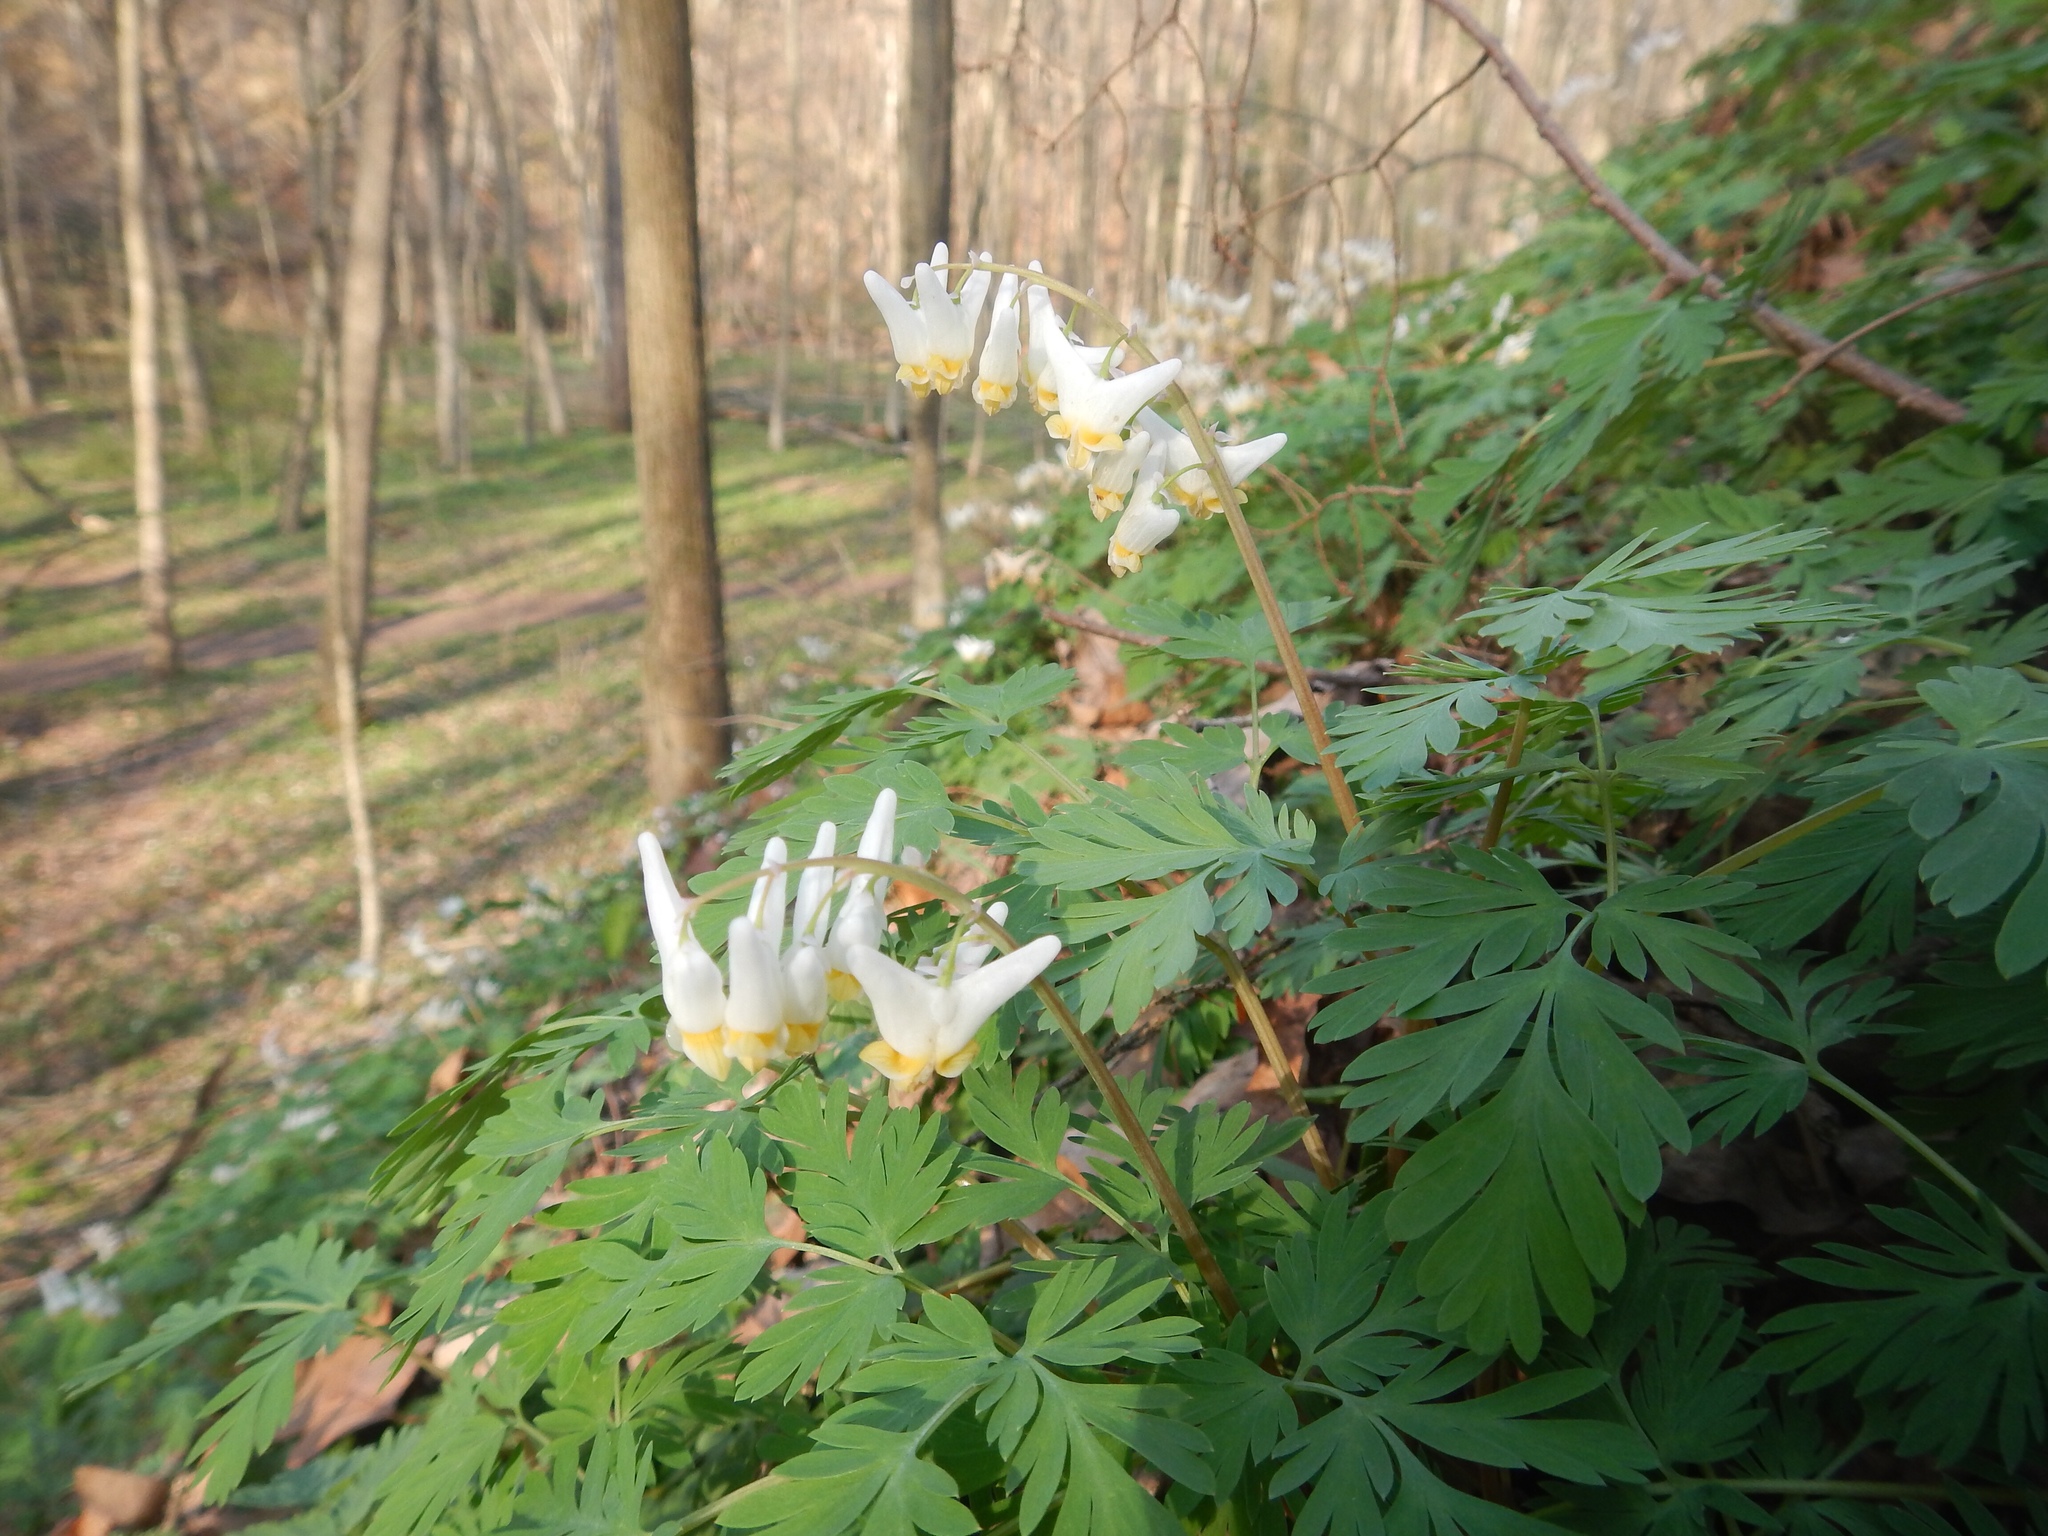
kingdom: Plantae
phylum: Tracheophyta
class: Magnoliopsida
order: Ranunculales
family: Papaveraceae
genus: Dicentra
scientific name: Dicentra cucullaria
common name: Dutchman's breeches
